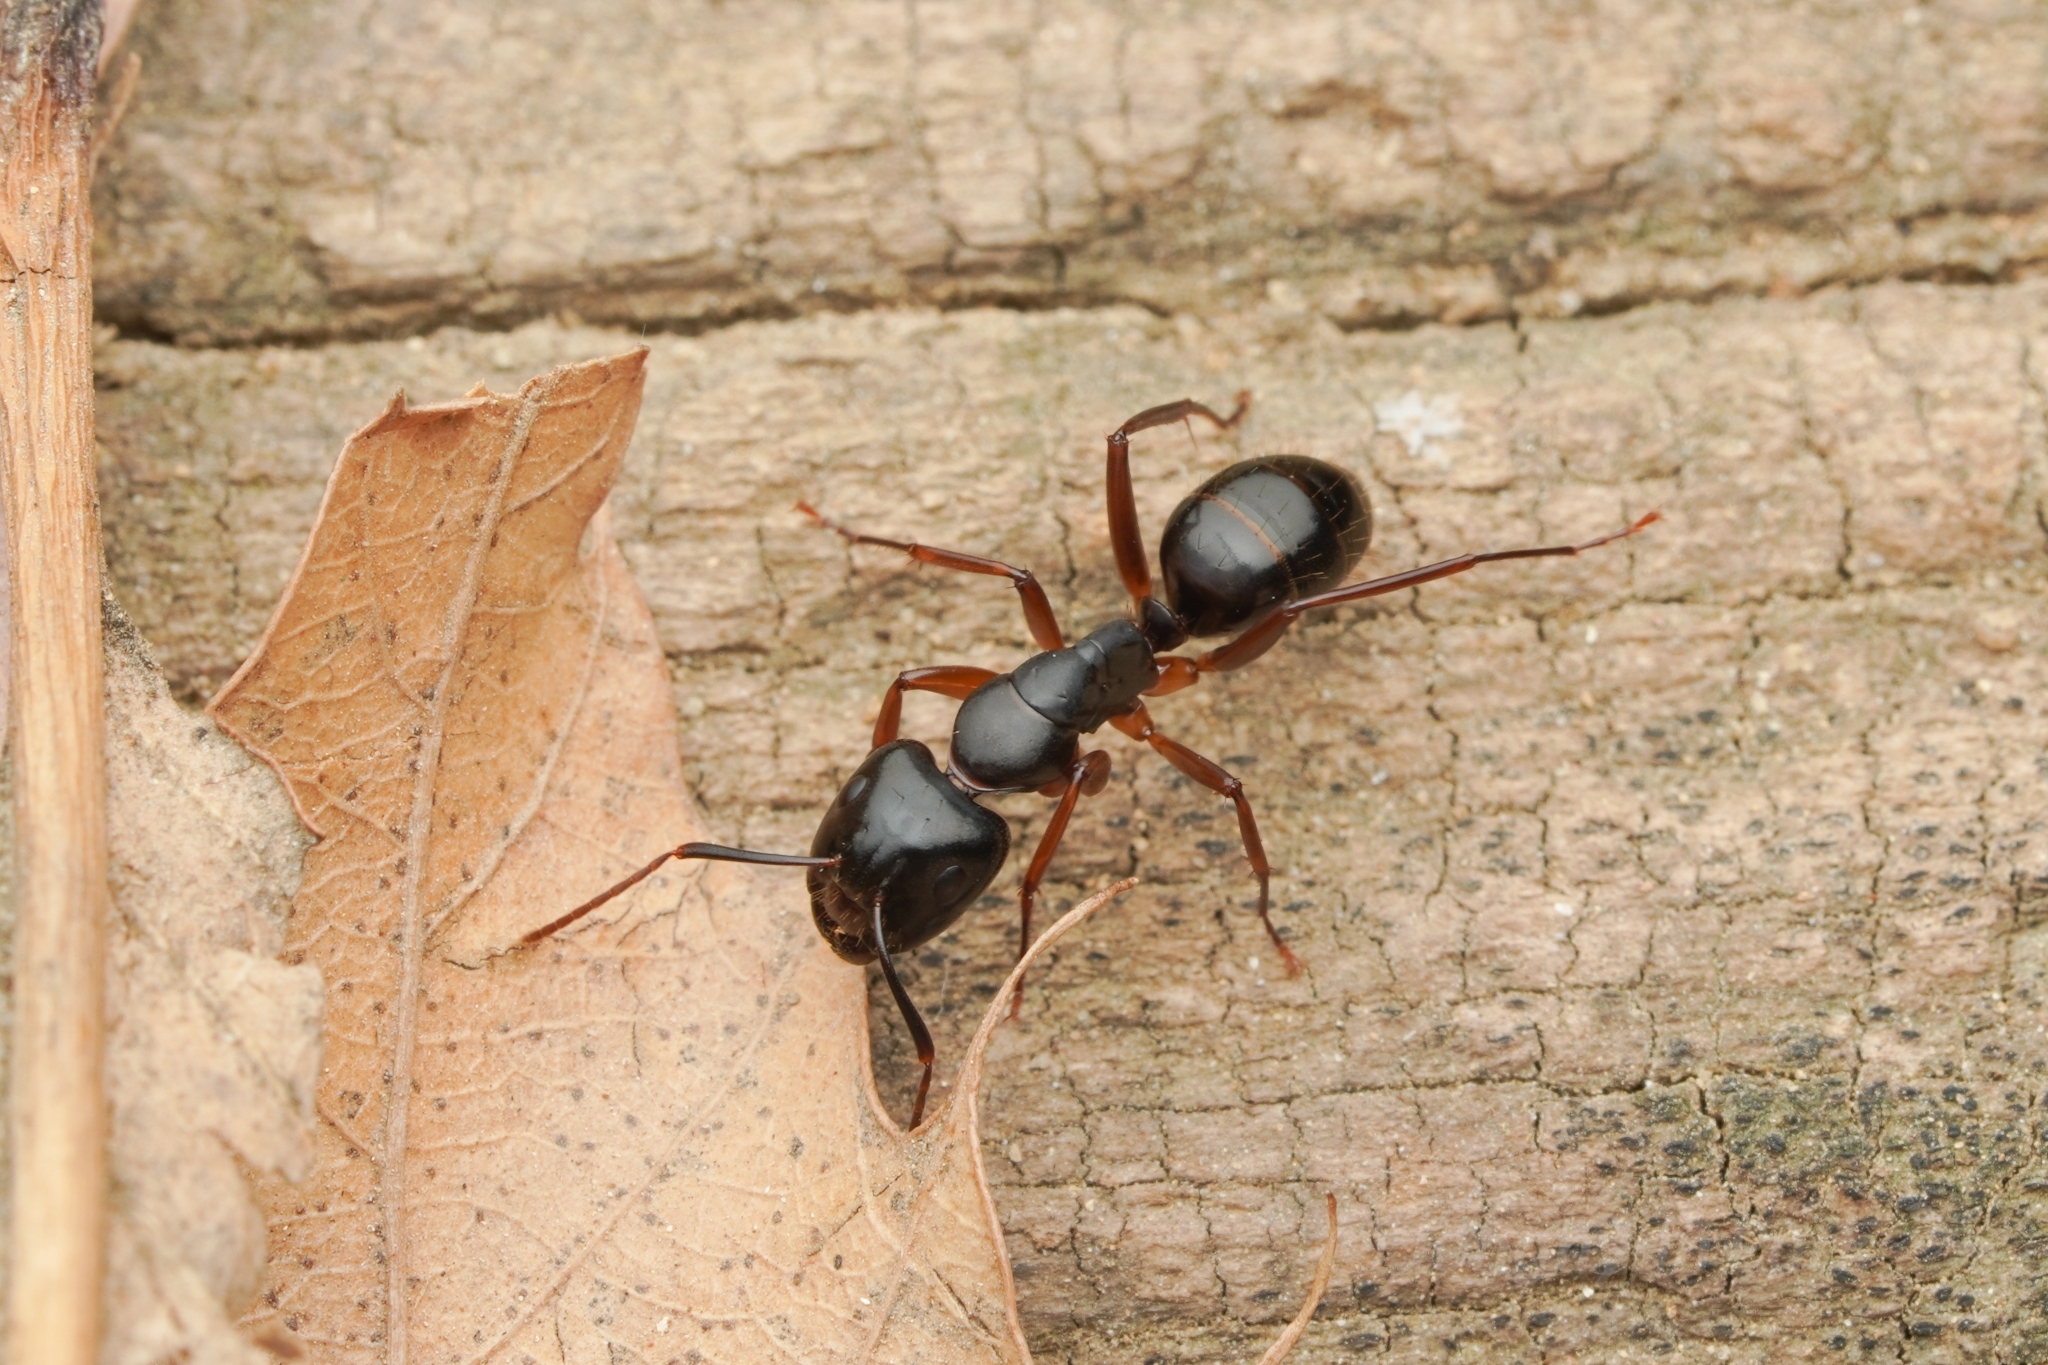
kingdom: Animalia
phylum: Arthropoda
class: Insecta
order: Hymenoptera
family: Formicidae
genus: Camponotus
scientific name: Camponotus kiusiuensis
